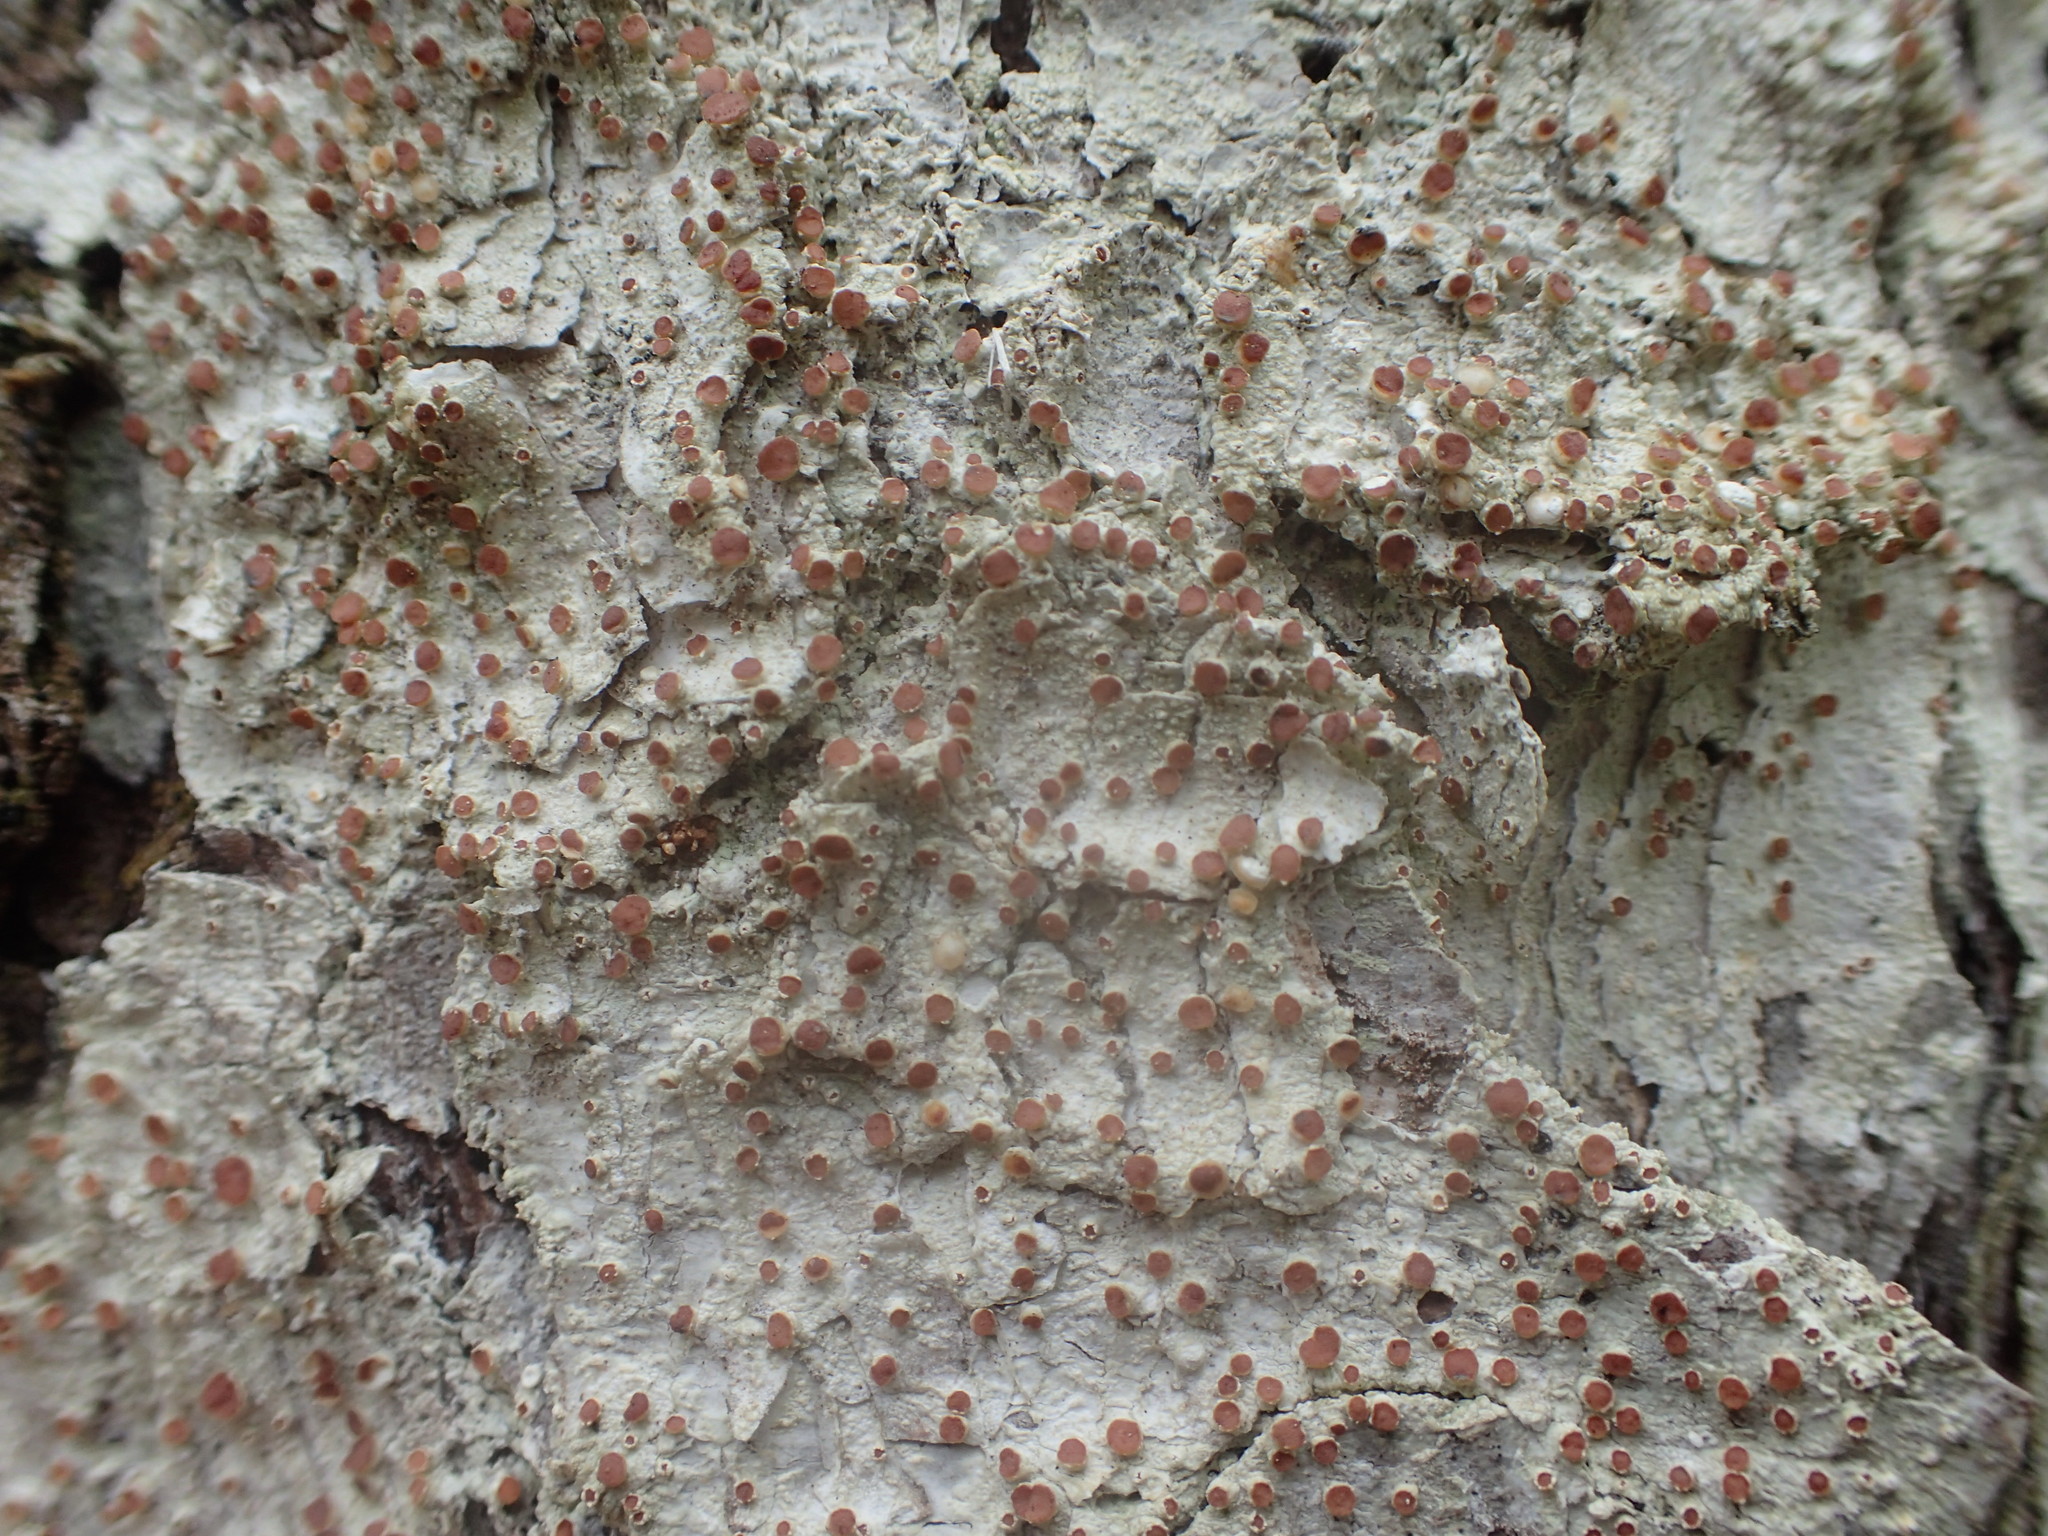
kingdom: Fungi
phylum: Ascomycota
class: Lecanoromycetes
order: Lecanorales
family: Sarrameanaceae
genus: Loxospora
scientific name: Loxospora ochrophaea
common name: Eastern ragged-rim lichen
